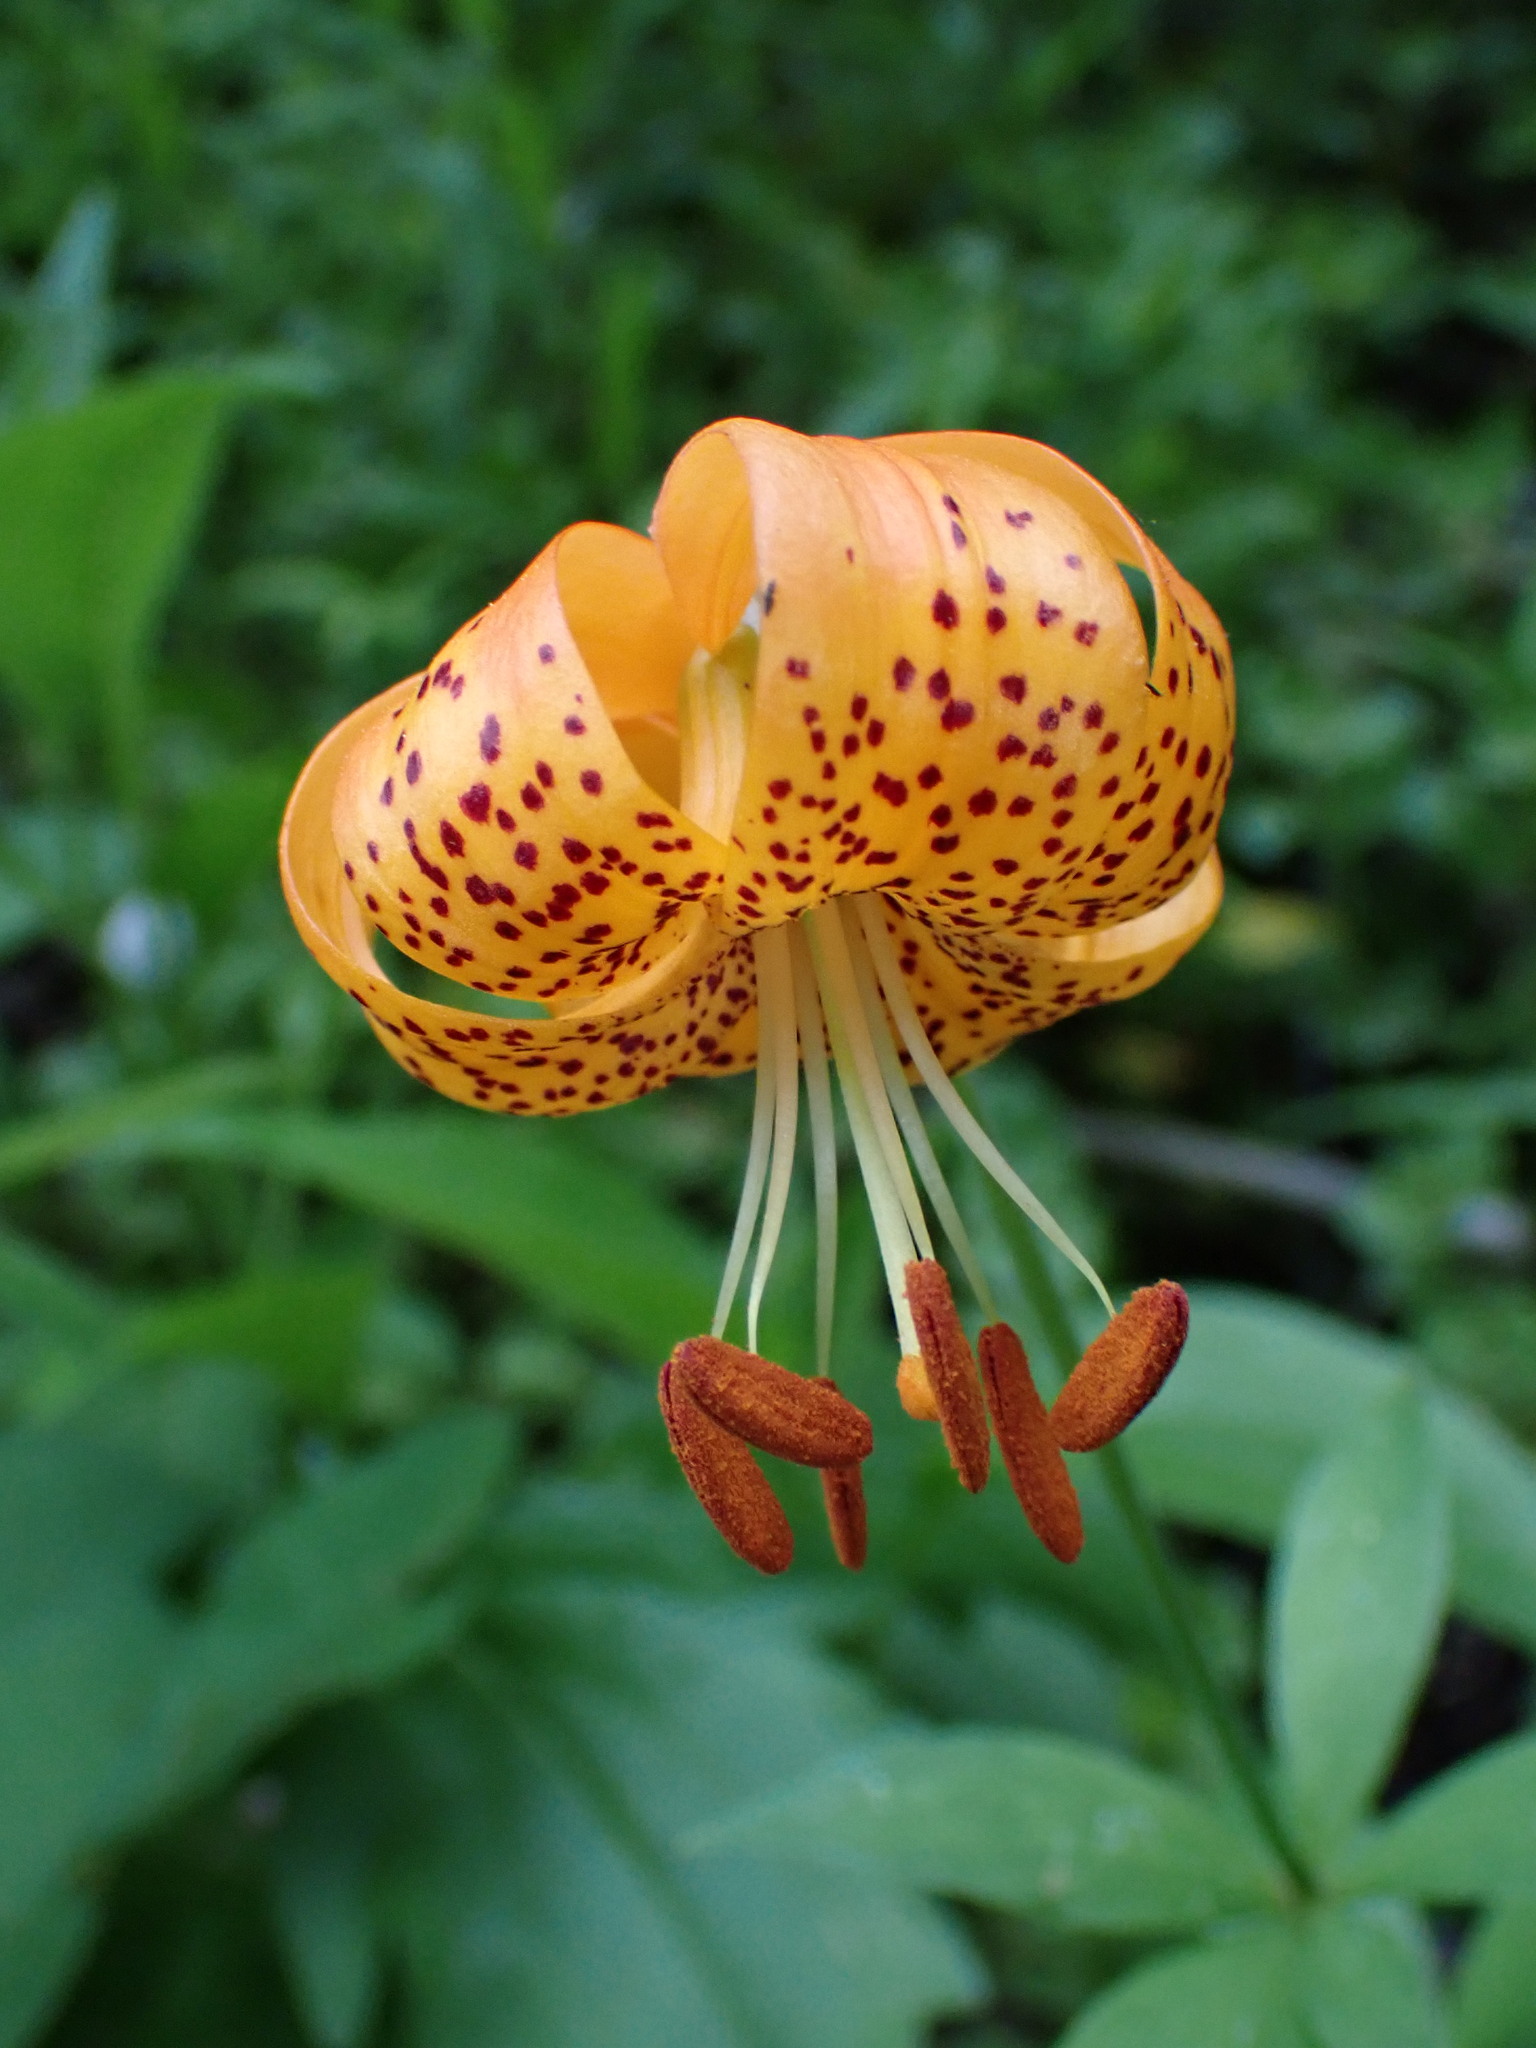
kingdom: Plantae
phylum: Tracheophyta
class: Liliopsida
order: Liliales
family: Liliaceae
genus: Lilium
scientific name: Lilium pardalinum
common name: Panther lily
